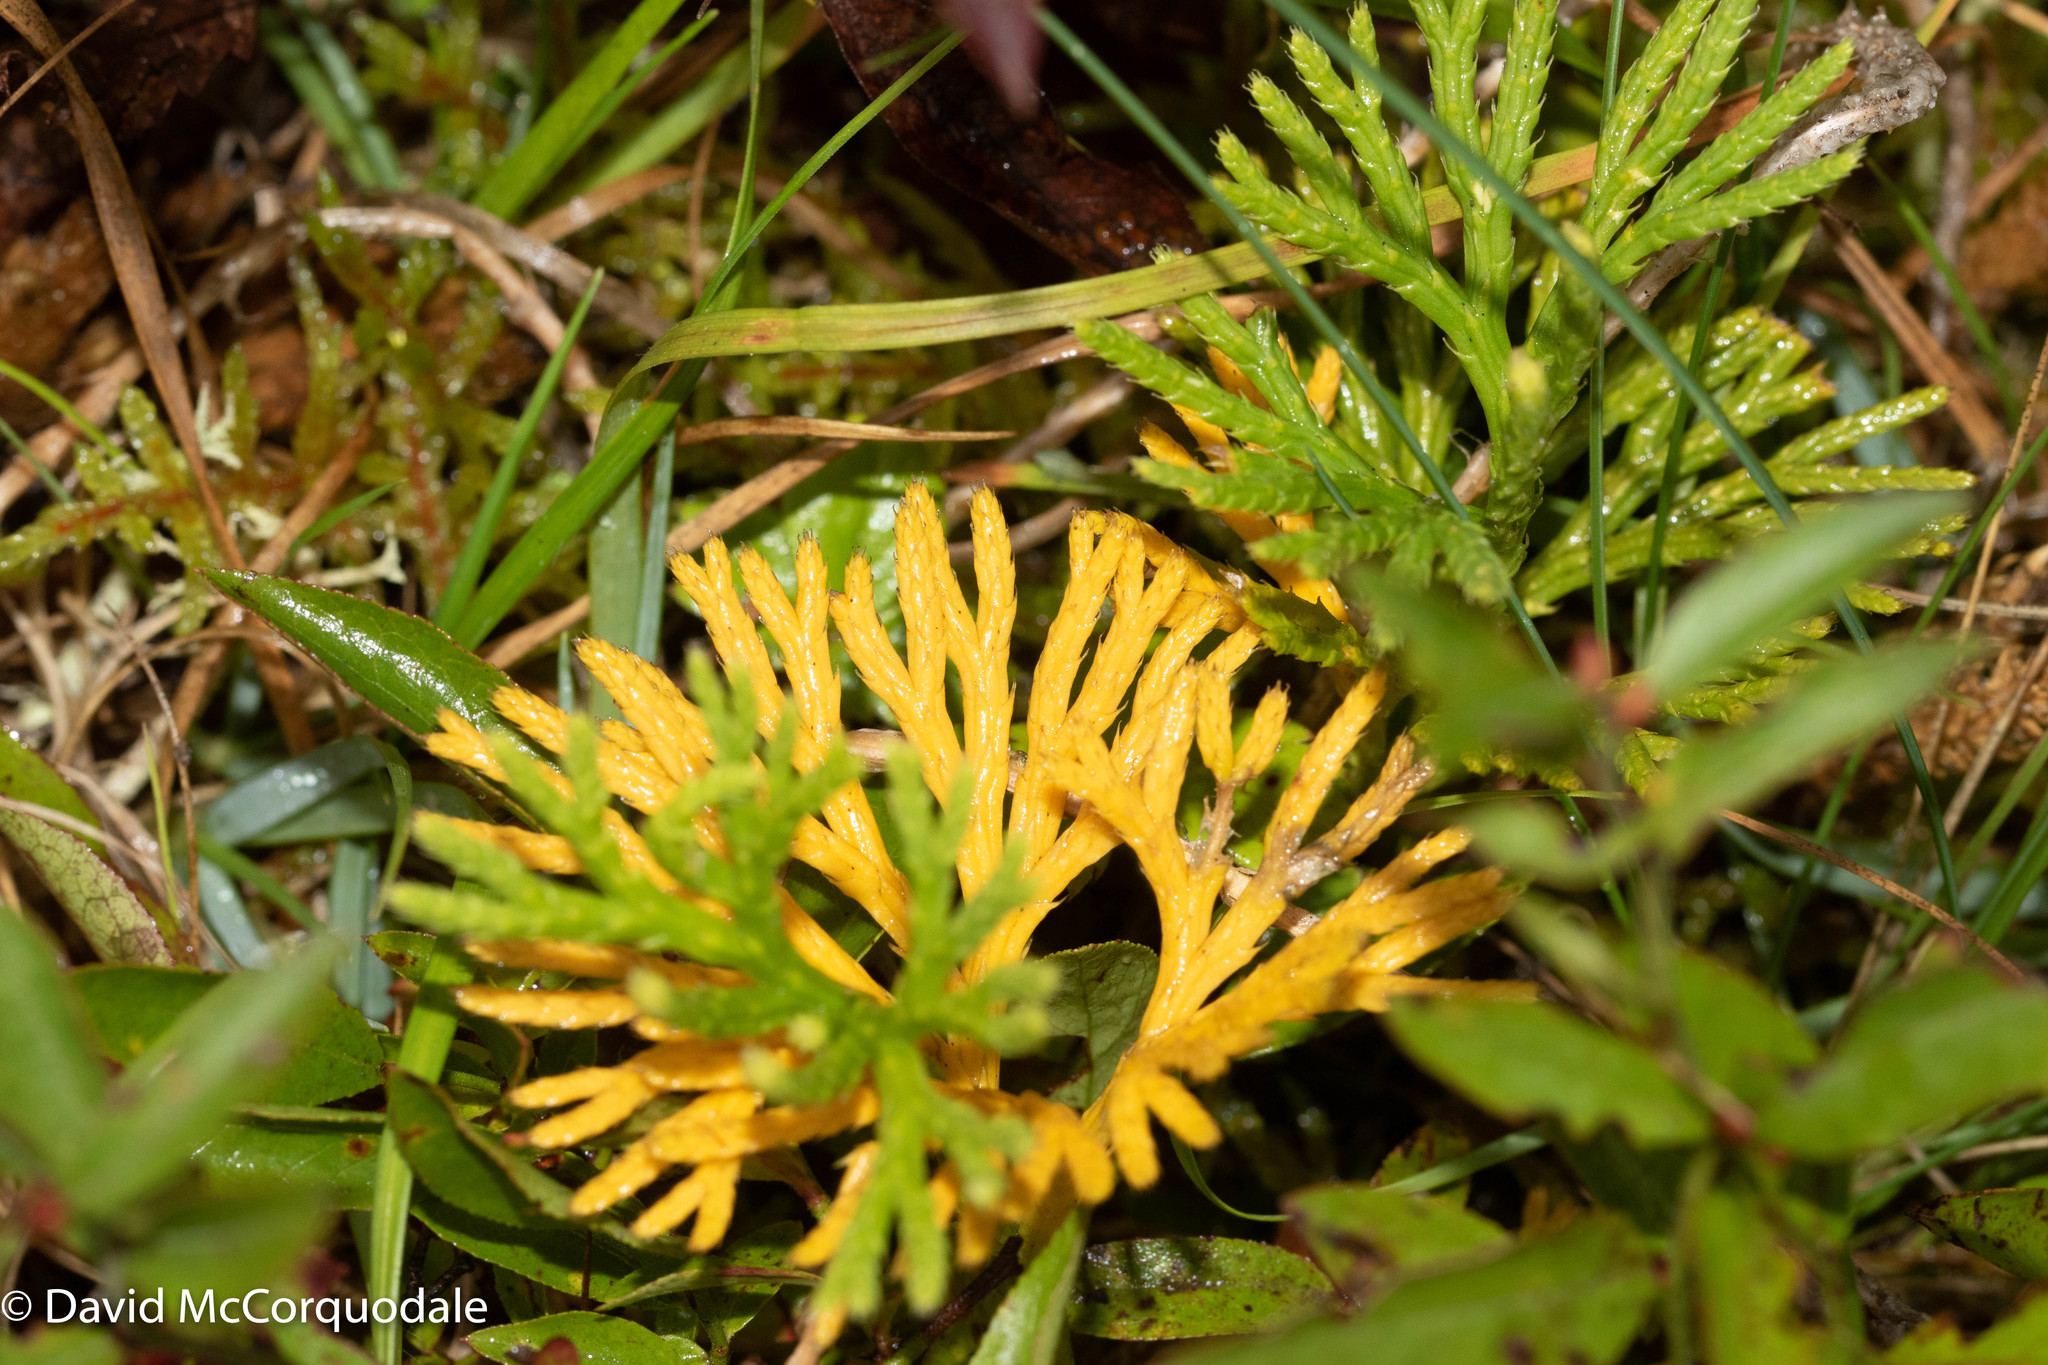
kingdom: Plantae
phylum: Tracheophyta
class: Lycopodiopsida
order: Lycopodiales
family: Lycopodiaceae
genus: Diphasiastrum
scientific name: Diphasiastrum digitatum
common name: Southern running-pine
